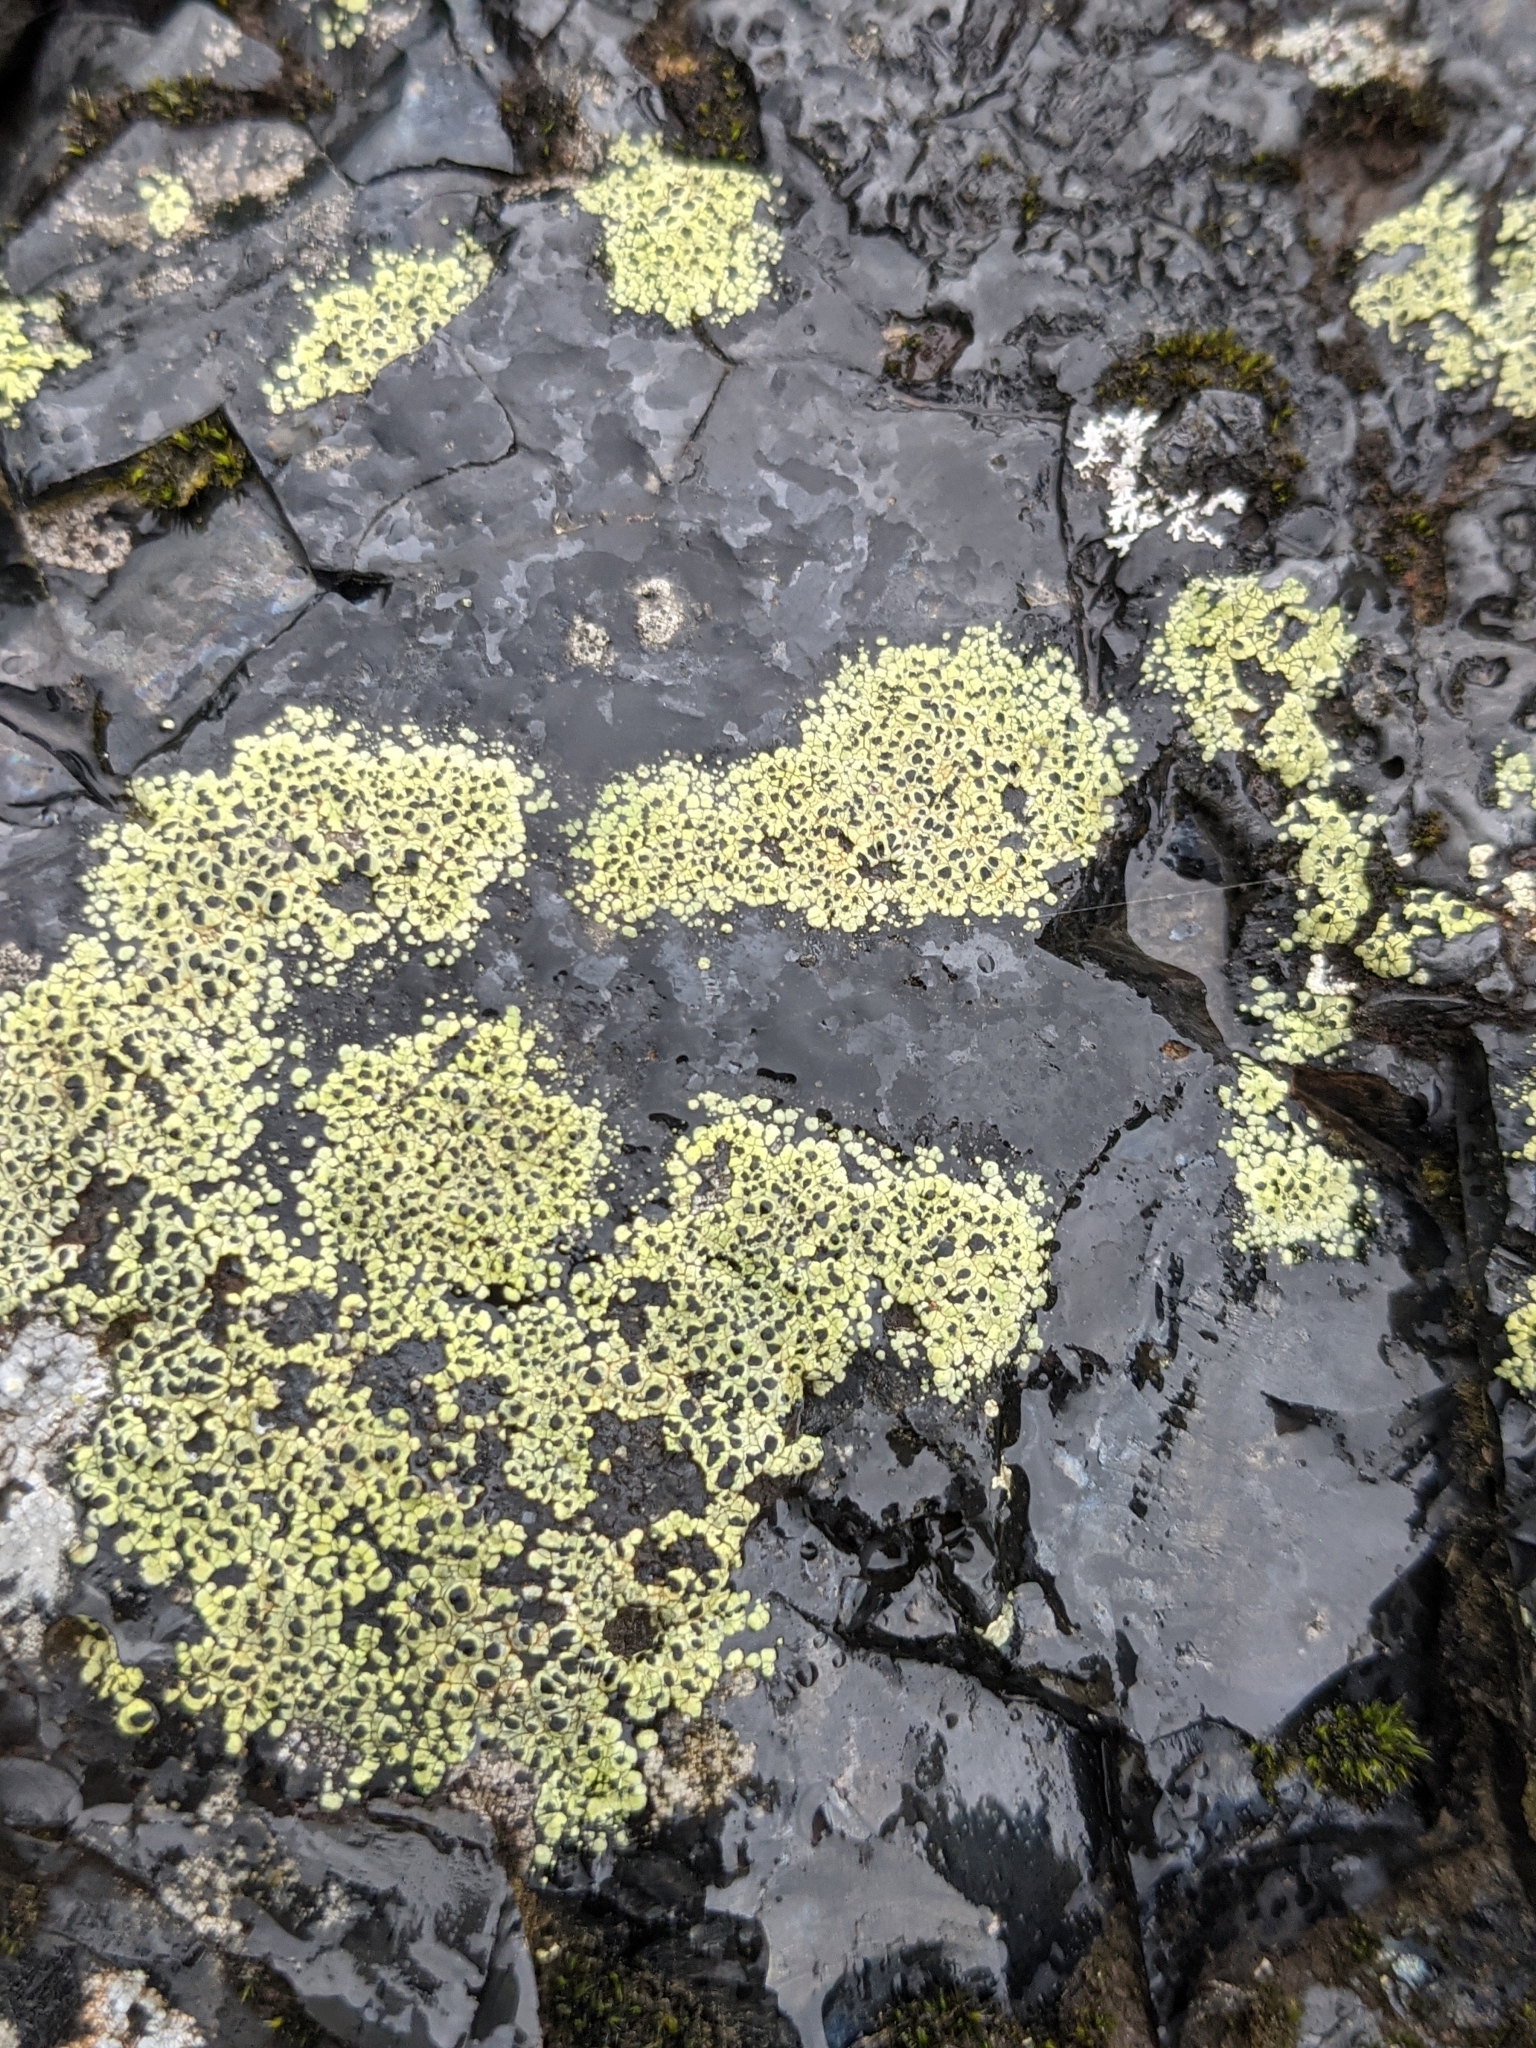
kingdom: Fungi
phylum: Ascomycota
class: Lecanoromycetes
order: Rhizocarpales
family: Rhizocarpaceae
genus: Rhizocarpon
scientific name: Rhizocarpon lecanorinum
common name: Crescent map lichen
